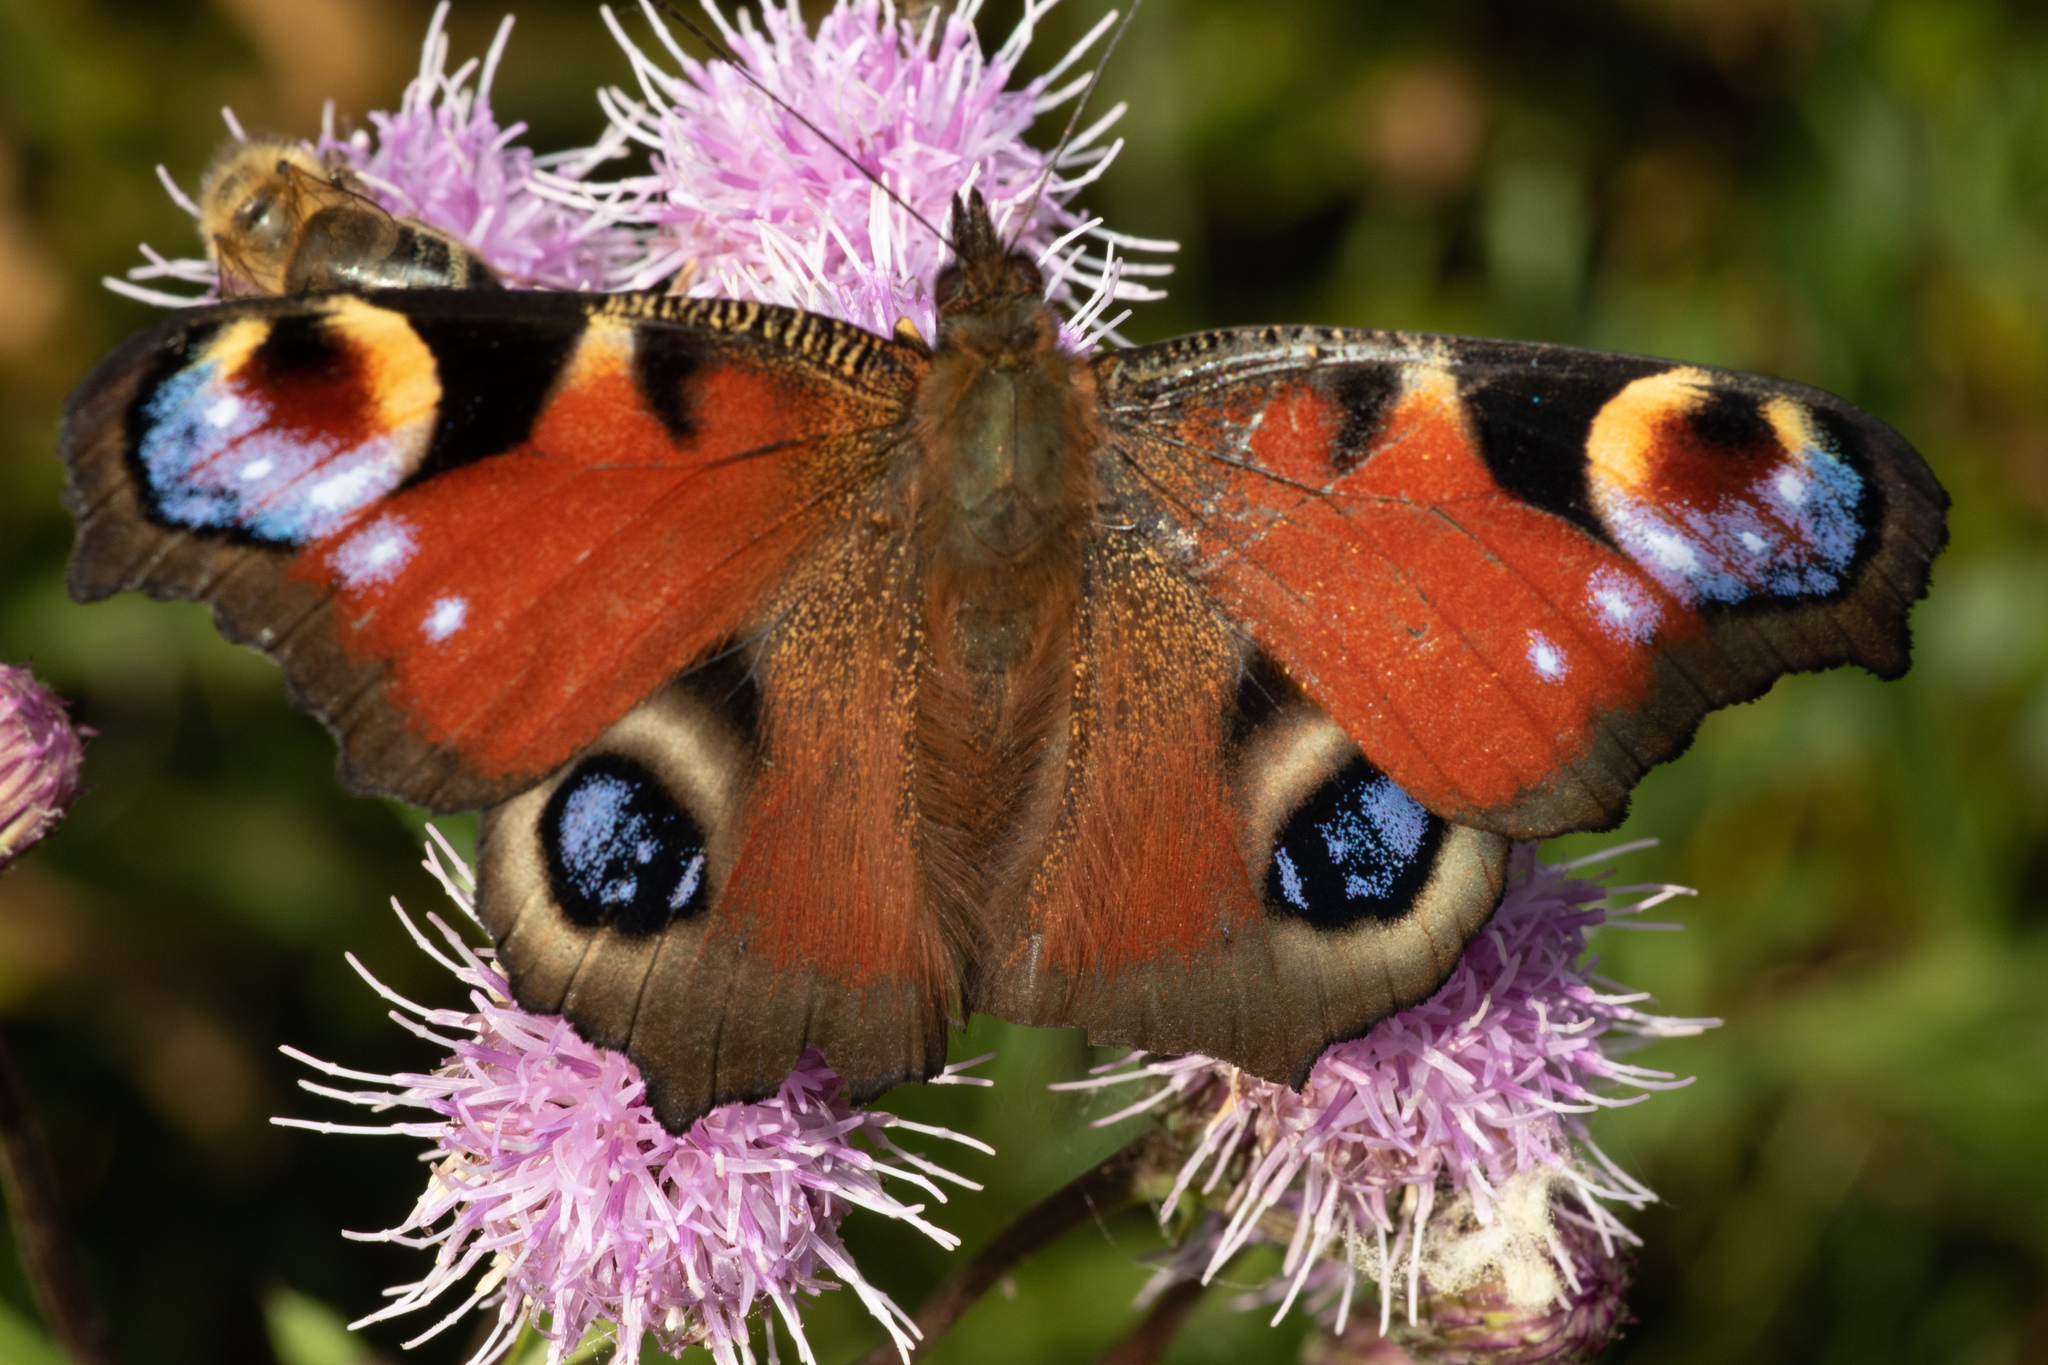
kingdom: Animalia
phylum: Arthropoda
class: Insecta
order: Lepidoptera
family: Nymphalidae
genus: Aglais
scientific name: Aglais io
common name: Peacock
